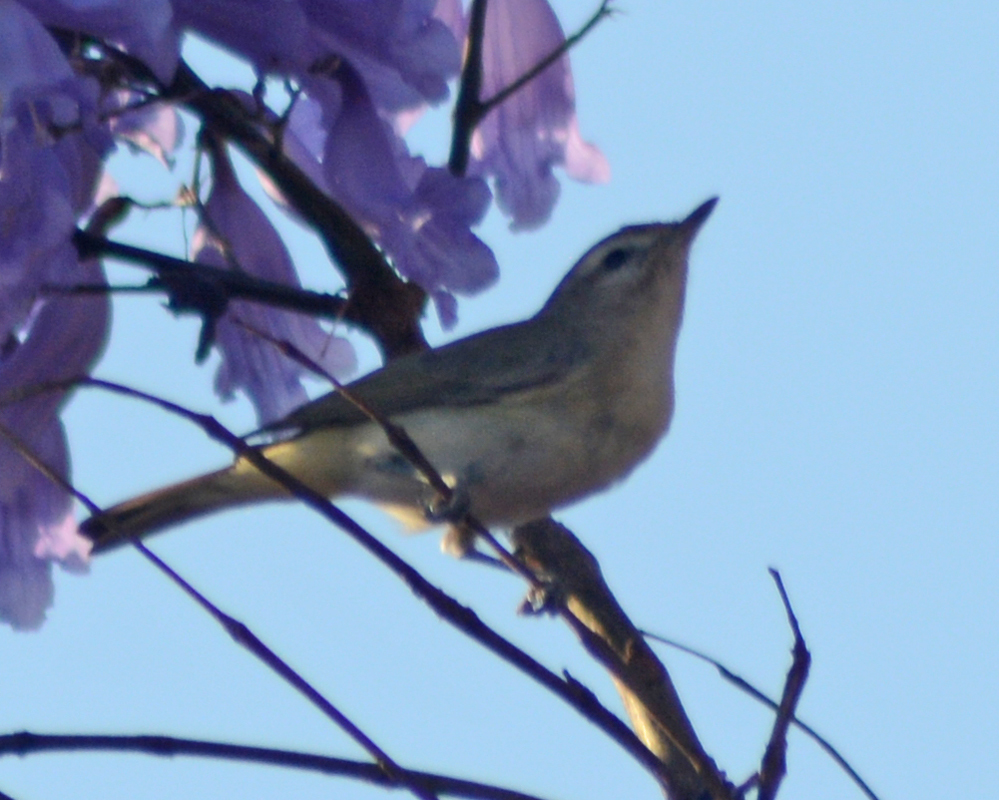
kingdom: Animalia
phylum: Chordata
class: Aves
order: Passeriformes
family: Vireonidae
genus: Vireo
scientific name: Vireo gilvus
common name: Warbling vireo
